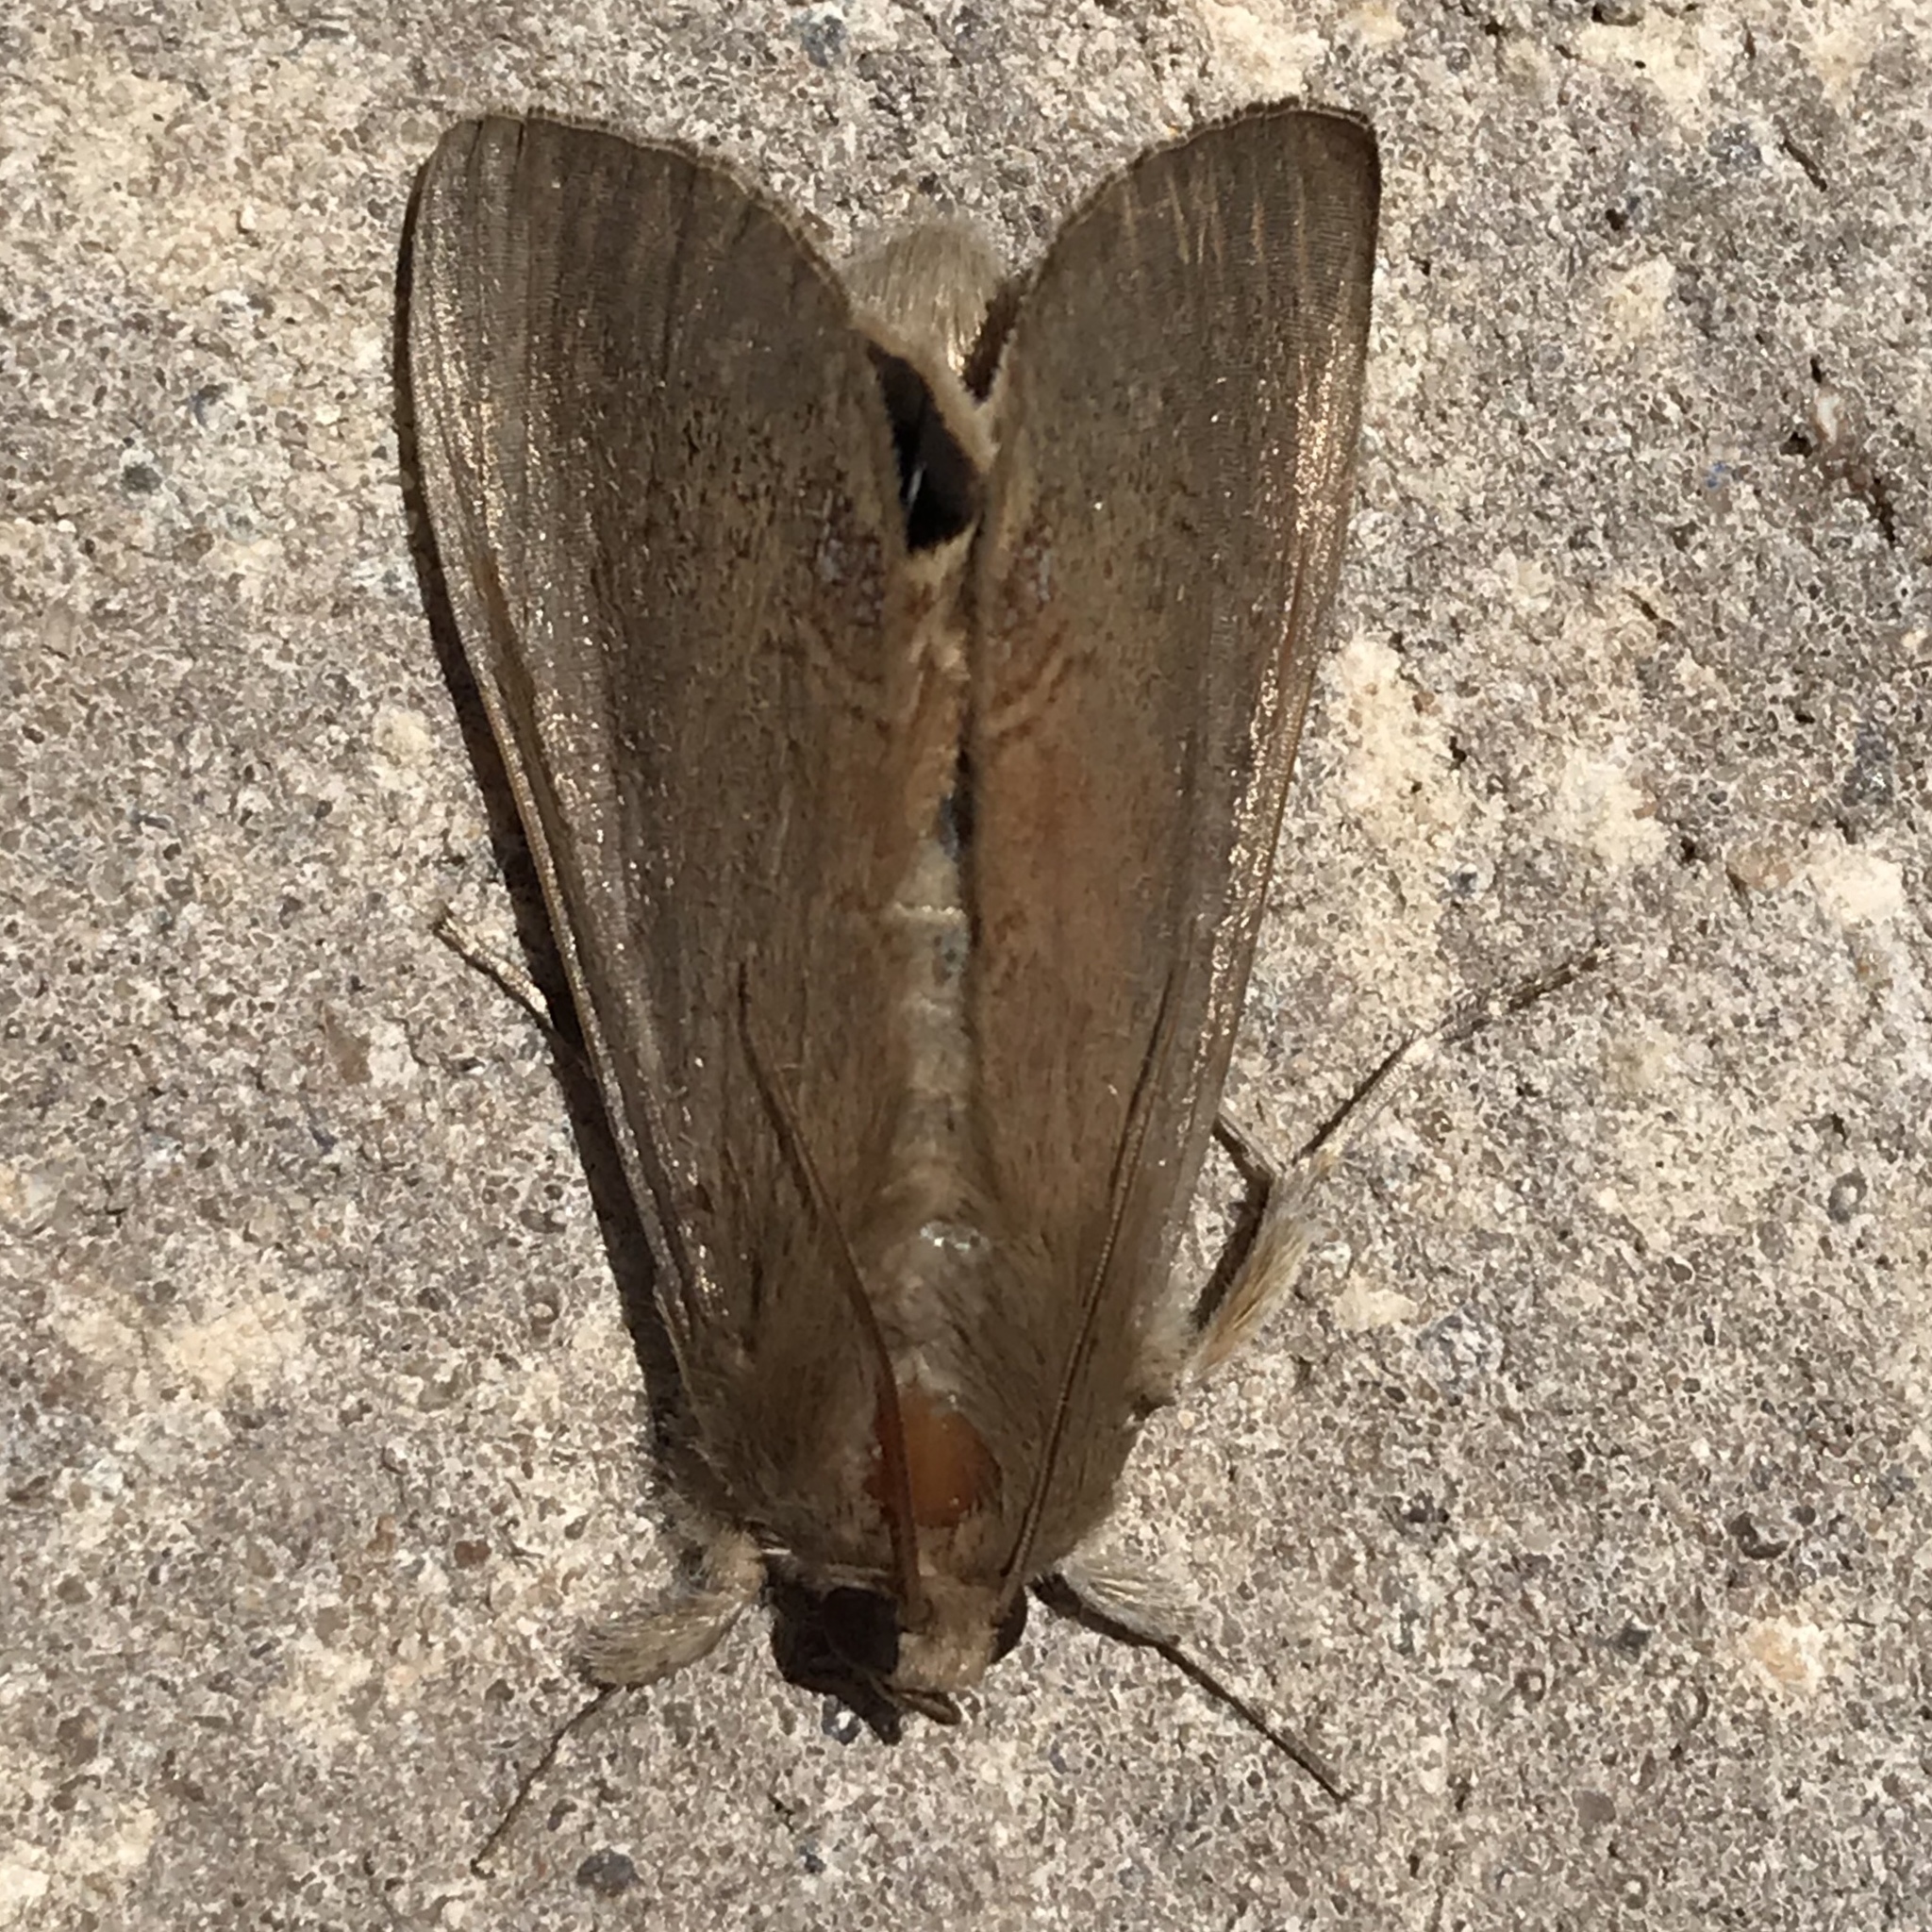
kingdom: Animalia
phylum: Arthropoda
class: Insecta
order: Lepidoptera
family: Erebidae
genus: Litoprosopus
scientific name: Litoprosopus futilis
